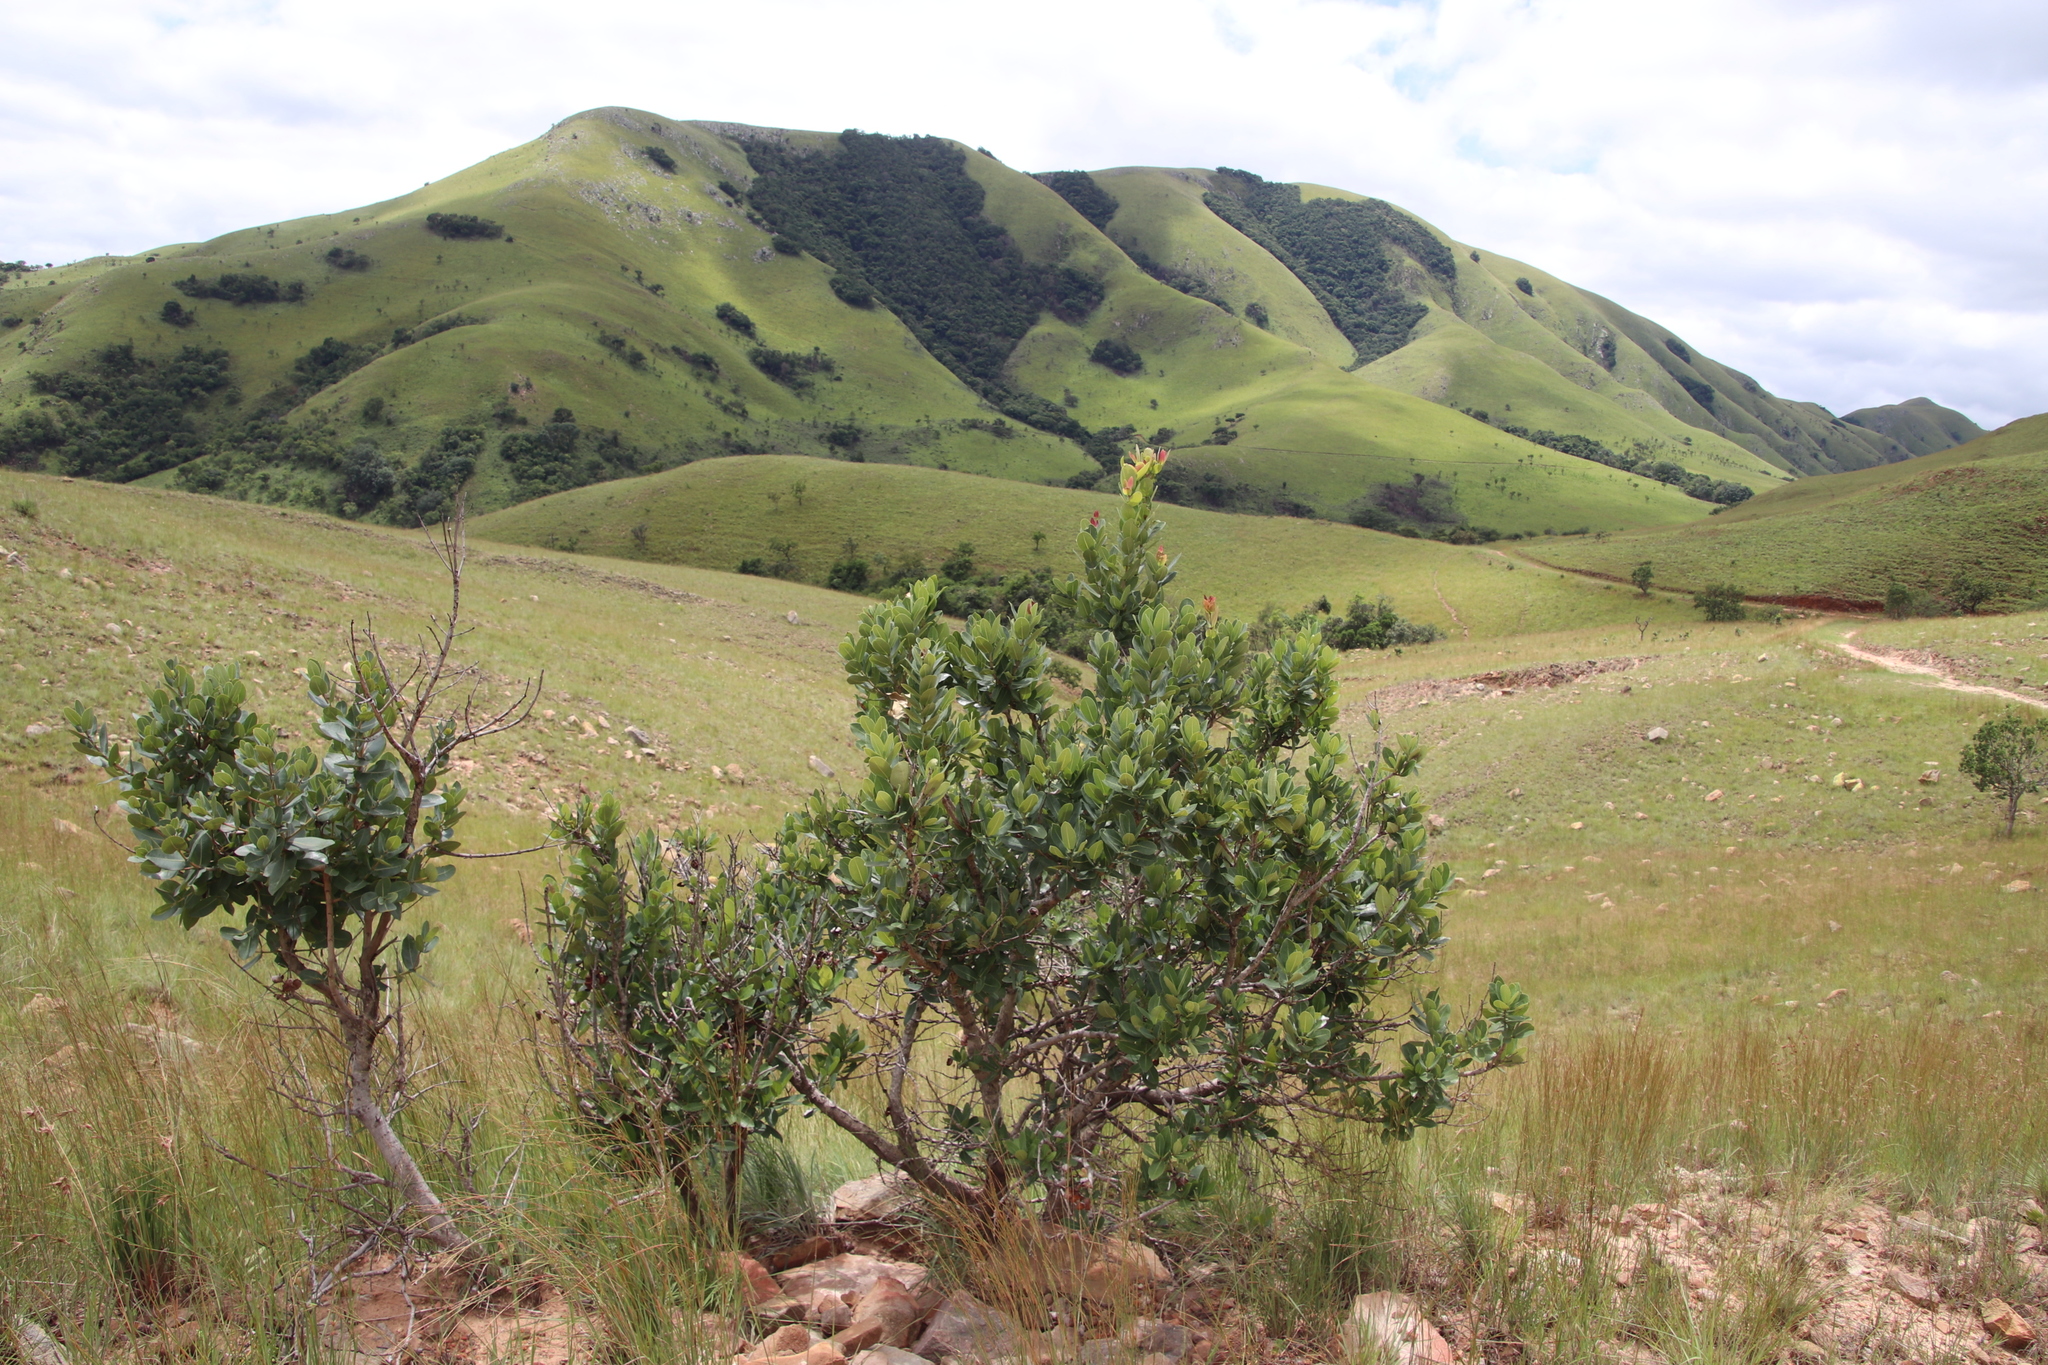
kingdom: Plantae
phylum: Tracheophyta
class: Magnoliopsida
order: Myrtales
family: Myrtaceae
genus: Syzygium
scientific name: Syzygium cordatum
